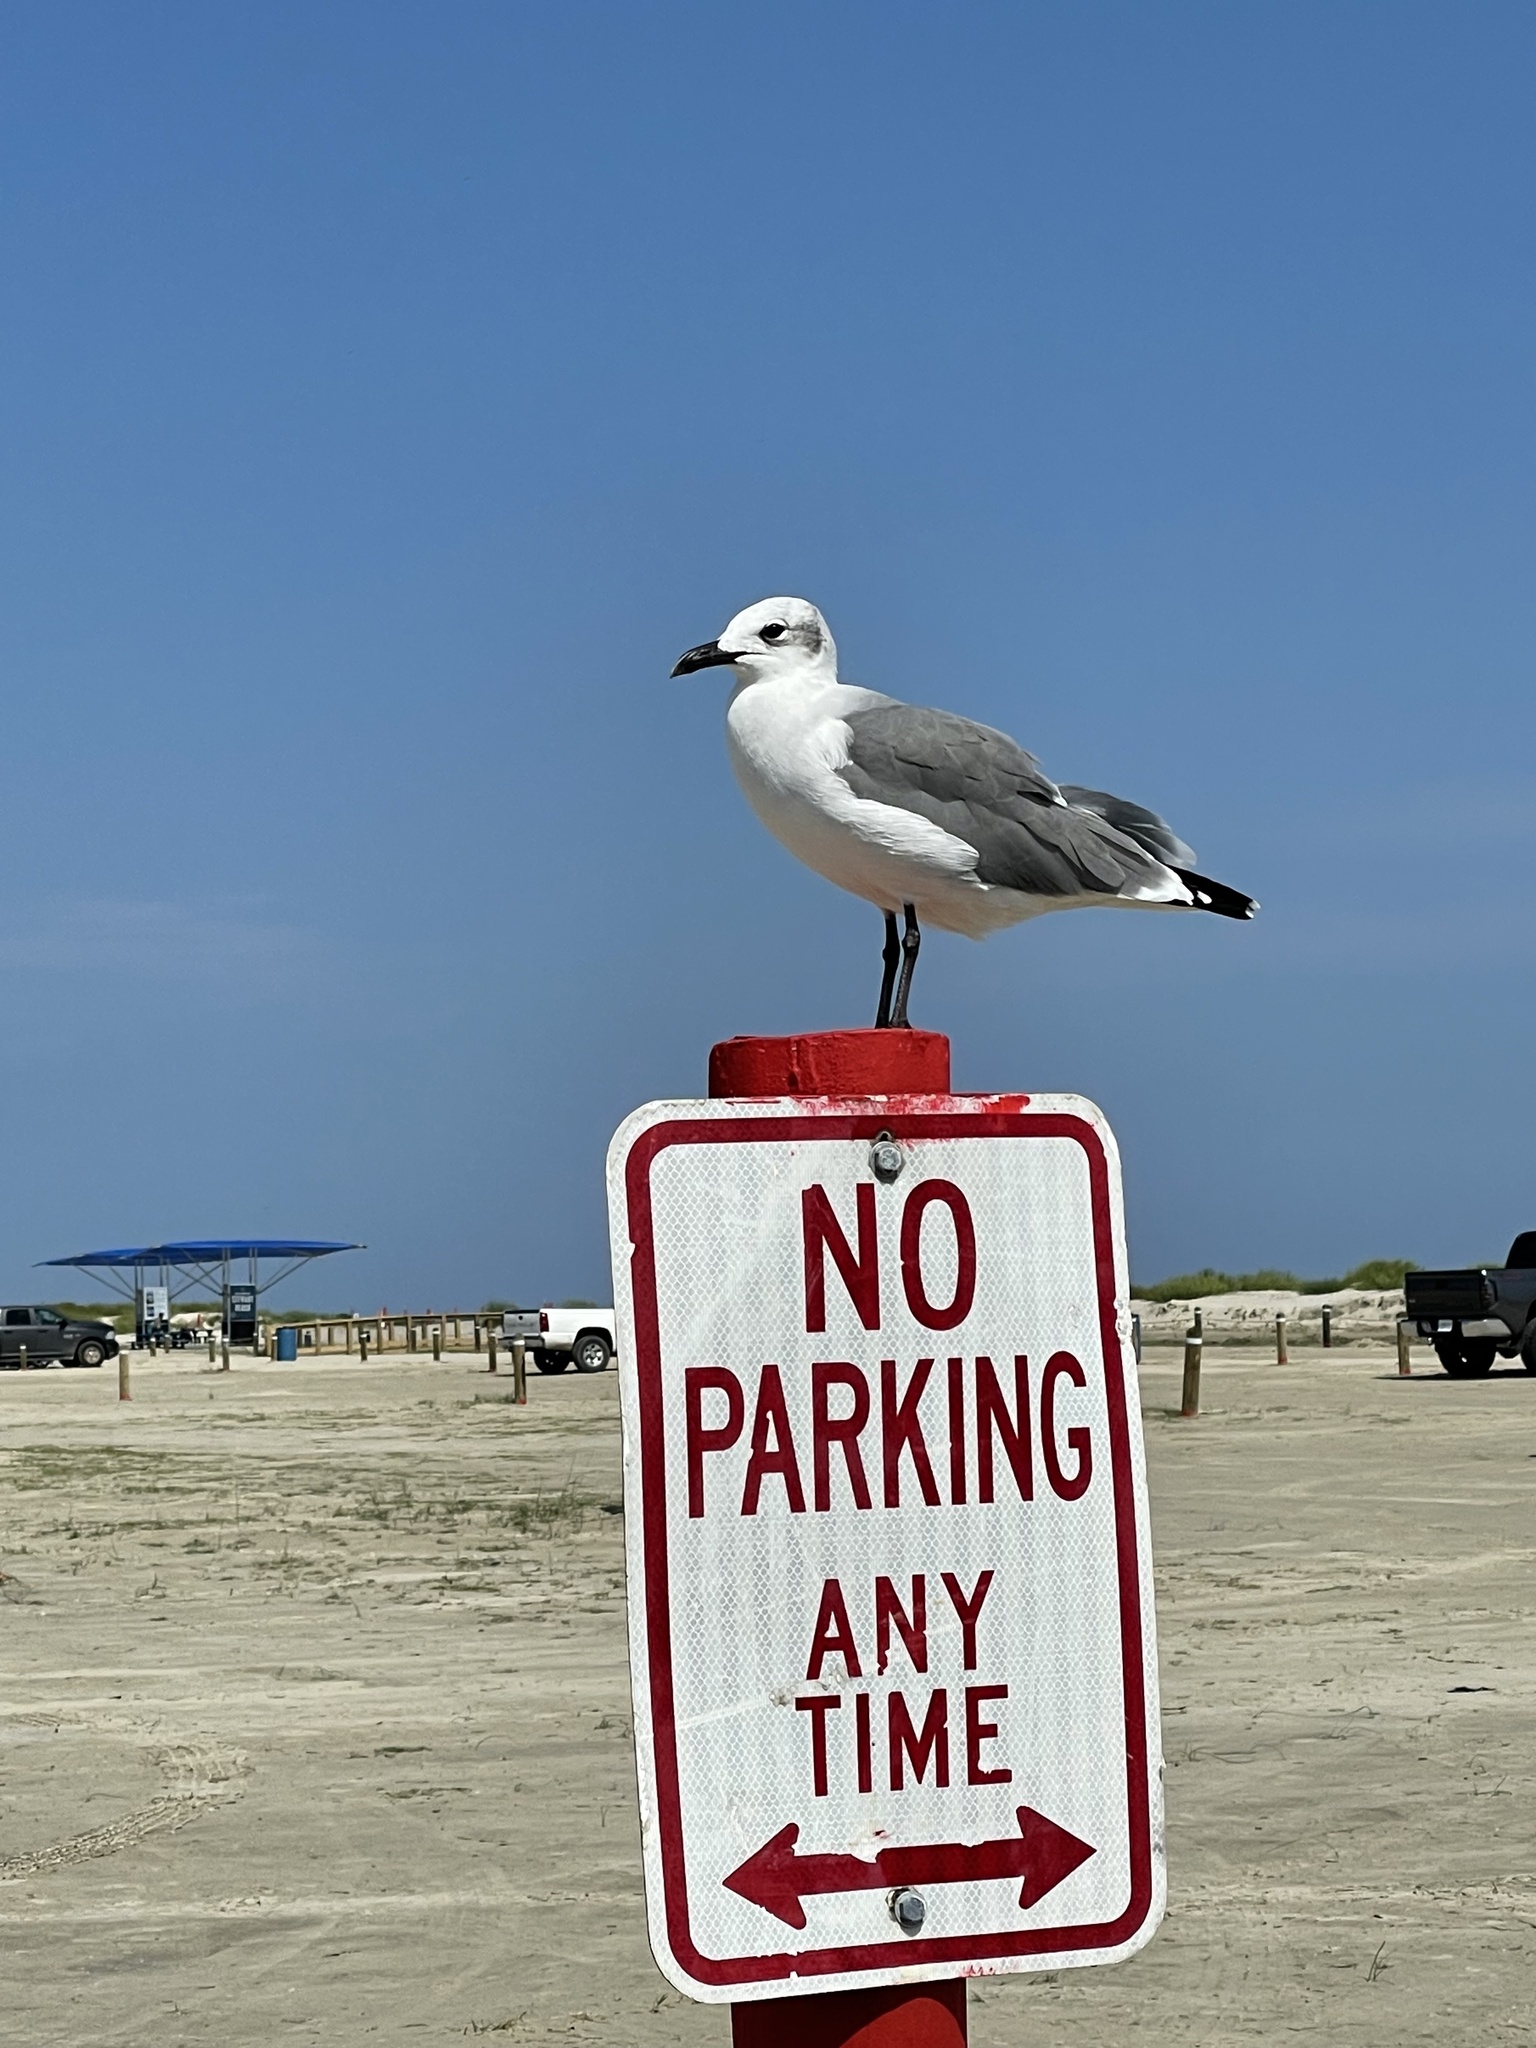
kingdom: Animalia
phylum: Chordata
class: Aves
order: Charadriiformes
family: Laridae
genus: Leucophaeus
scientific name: Leucophaeus atricilla
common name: Laughing gull
